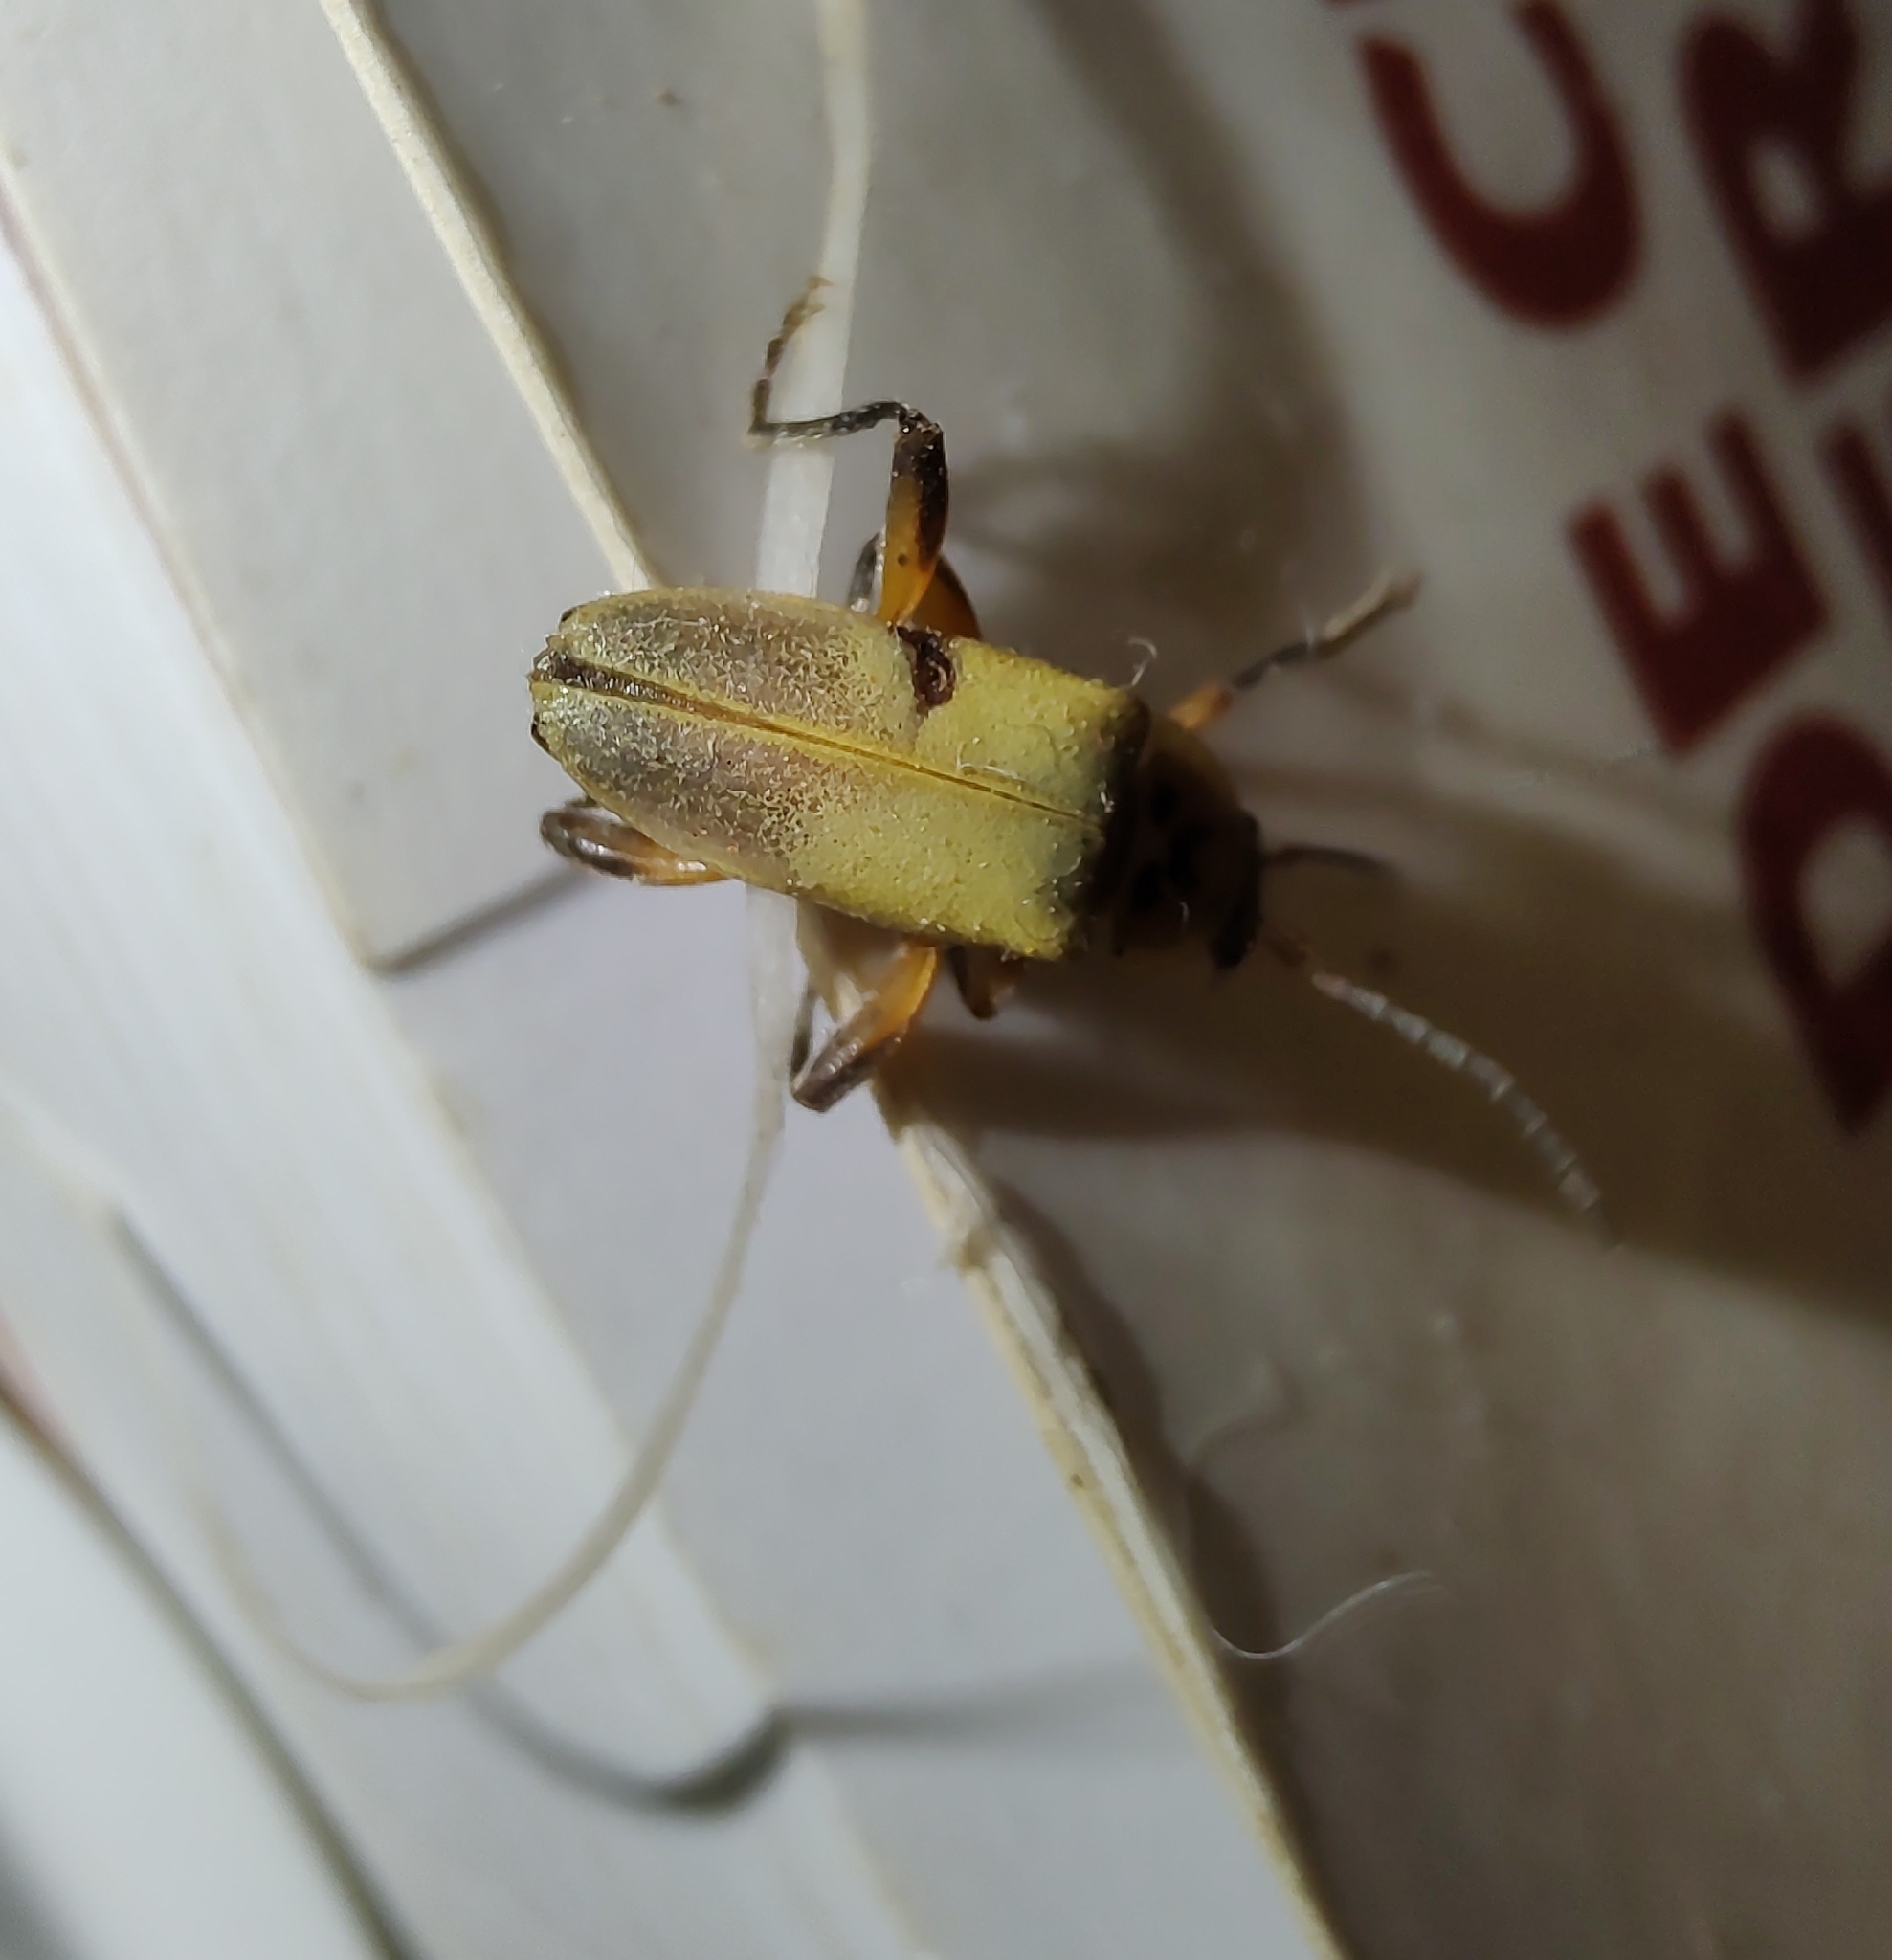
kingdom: Animalia
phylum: Arthropoda
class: Insecta
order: Coleoptera
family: Cantharidae
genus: Chauliognathus
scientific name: Chauliognathus
